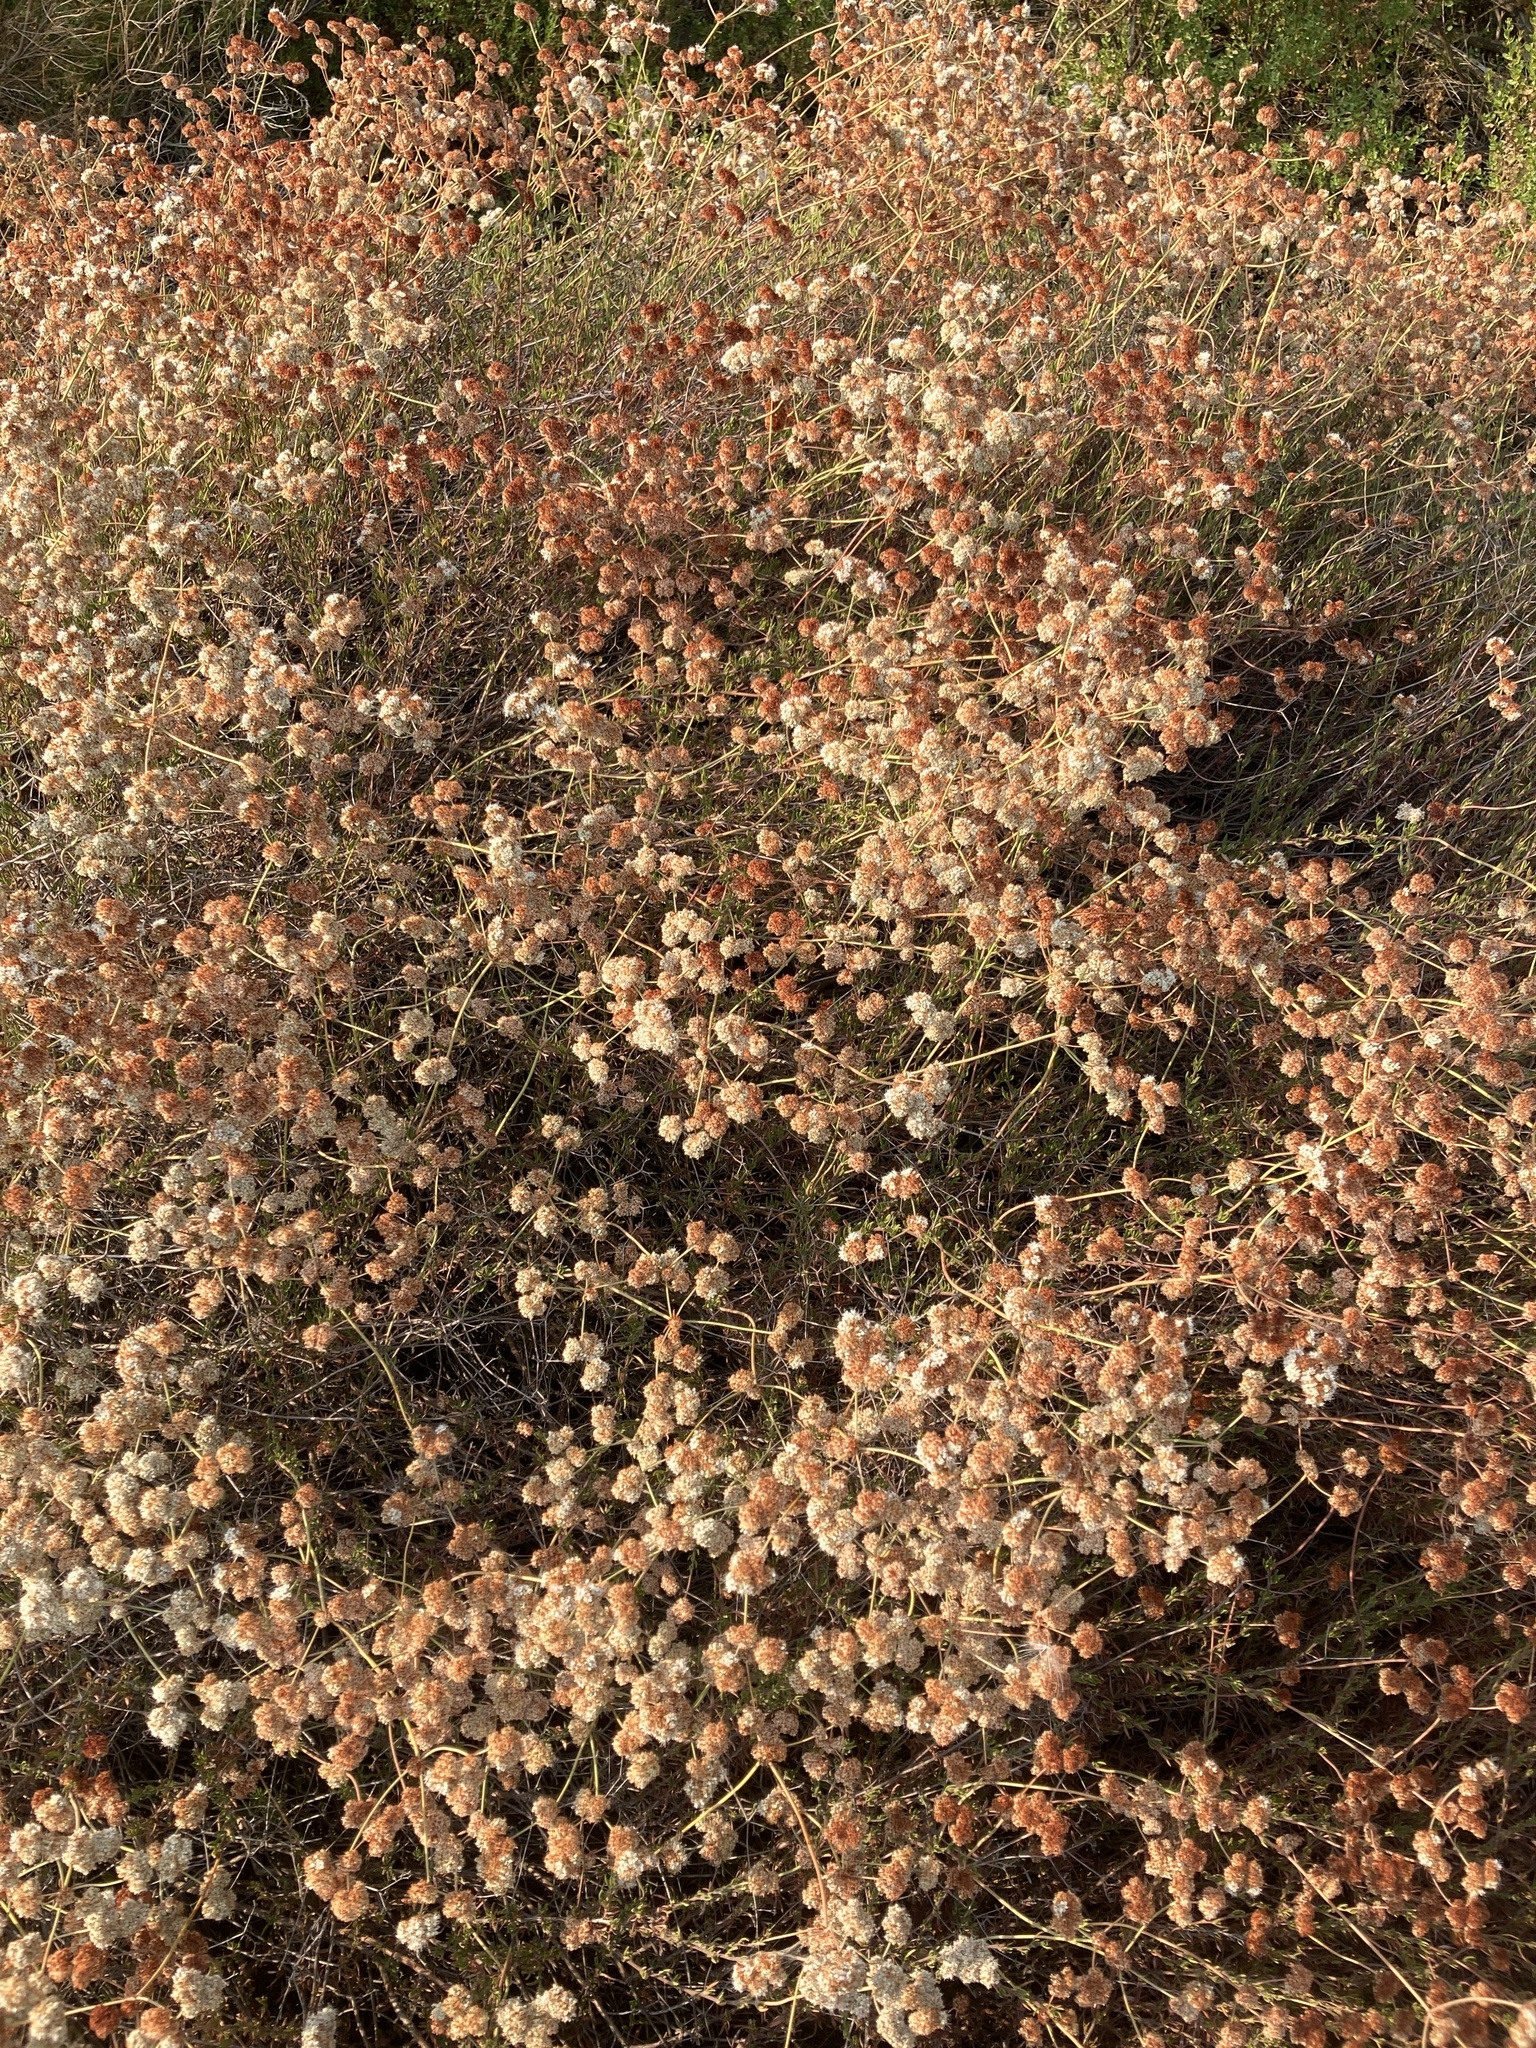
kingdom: Plantae
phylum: Tracheophyta
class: Magnoliopsida
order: Caryophyllales
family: Polygonaceae
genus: Eriogonum
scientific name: Eriogonum fasciculatum
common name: California wild buckwheat
